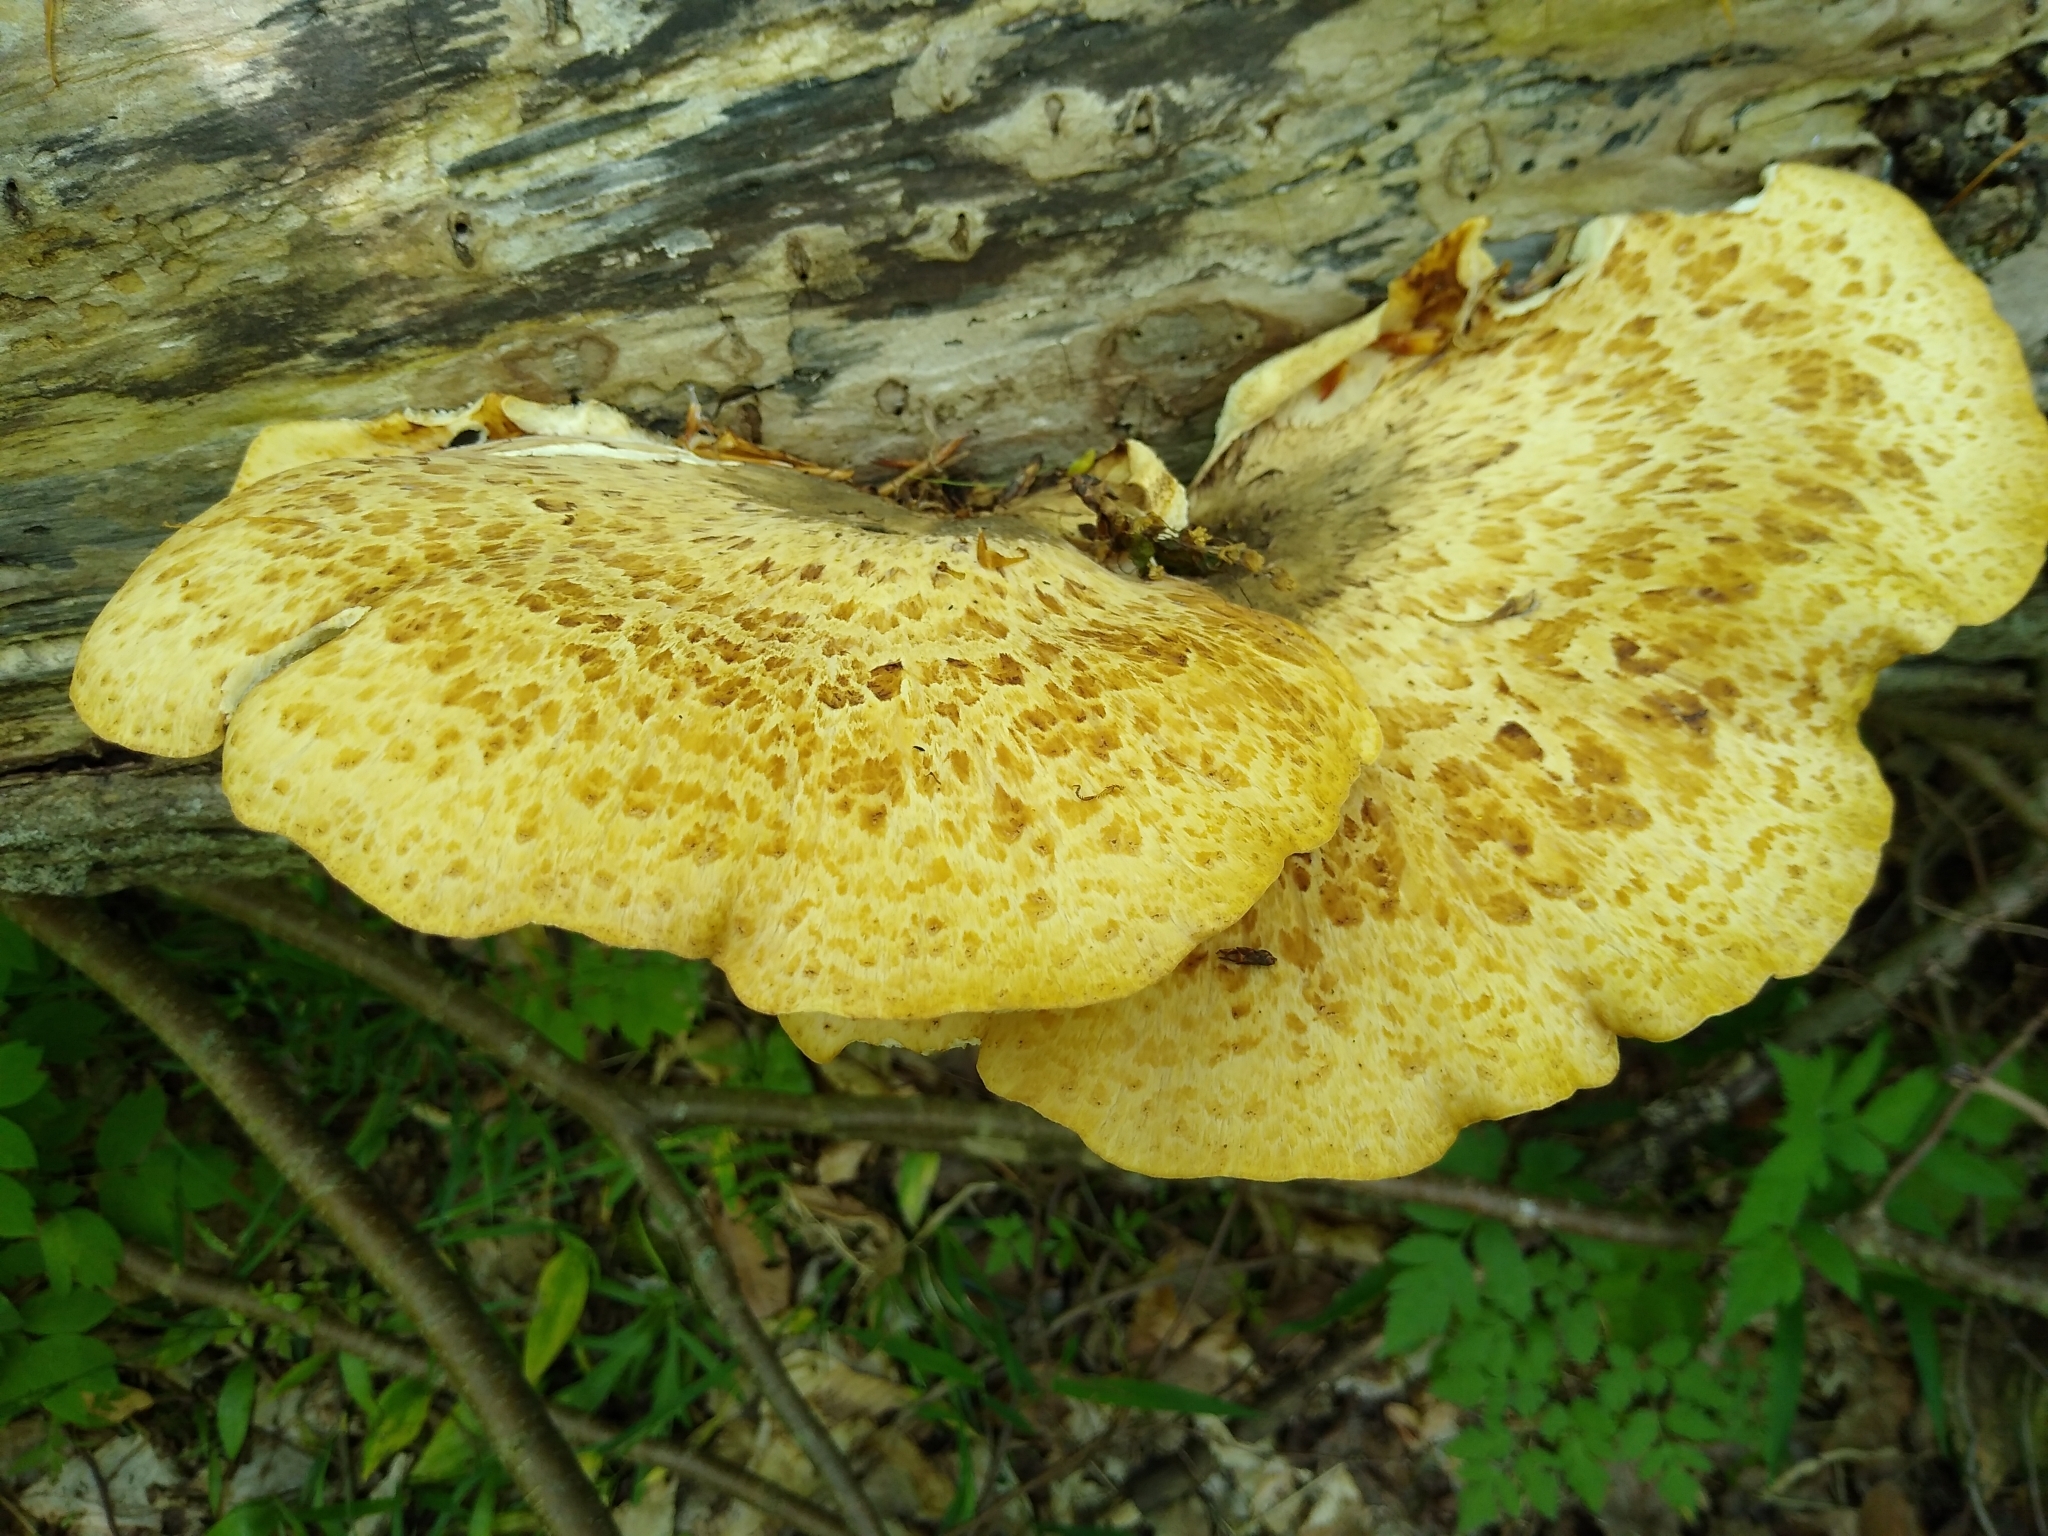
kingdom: Fungi
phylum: Basidiomycota
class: Agaricomycetes
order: Polyporales
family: Polyporaceae
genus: Cerioporus
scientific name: Cerioporus squamosus
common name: Dryad's saddle
